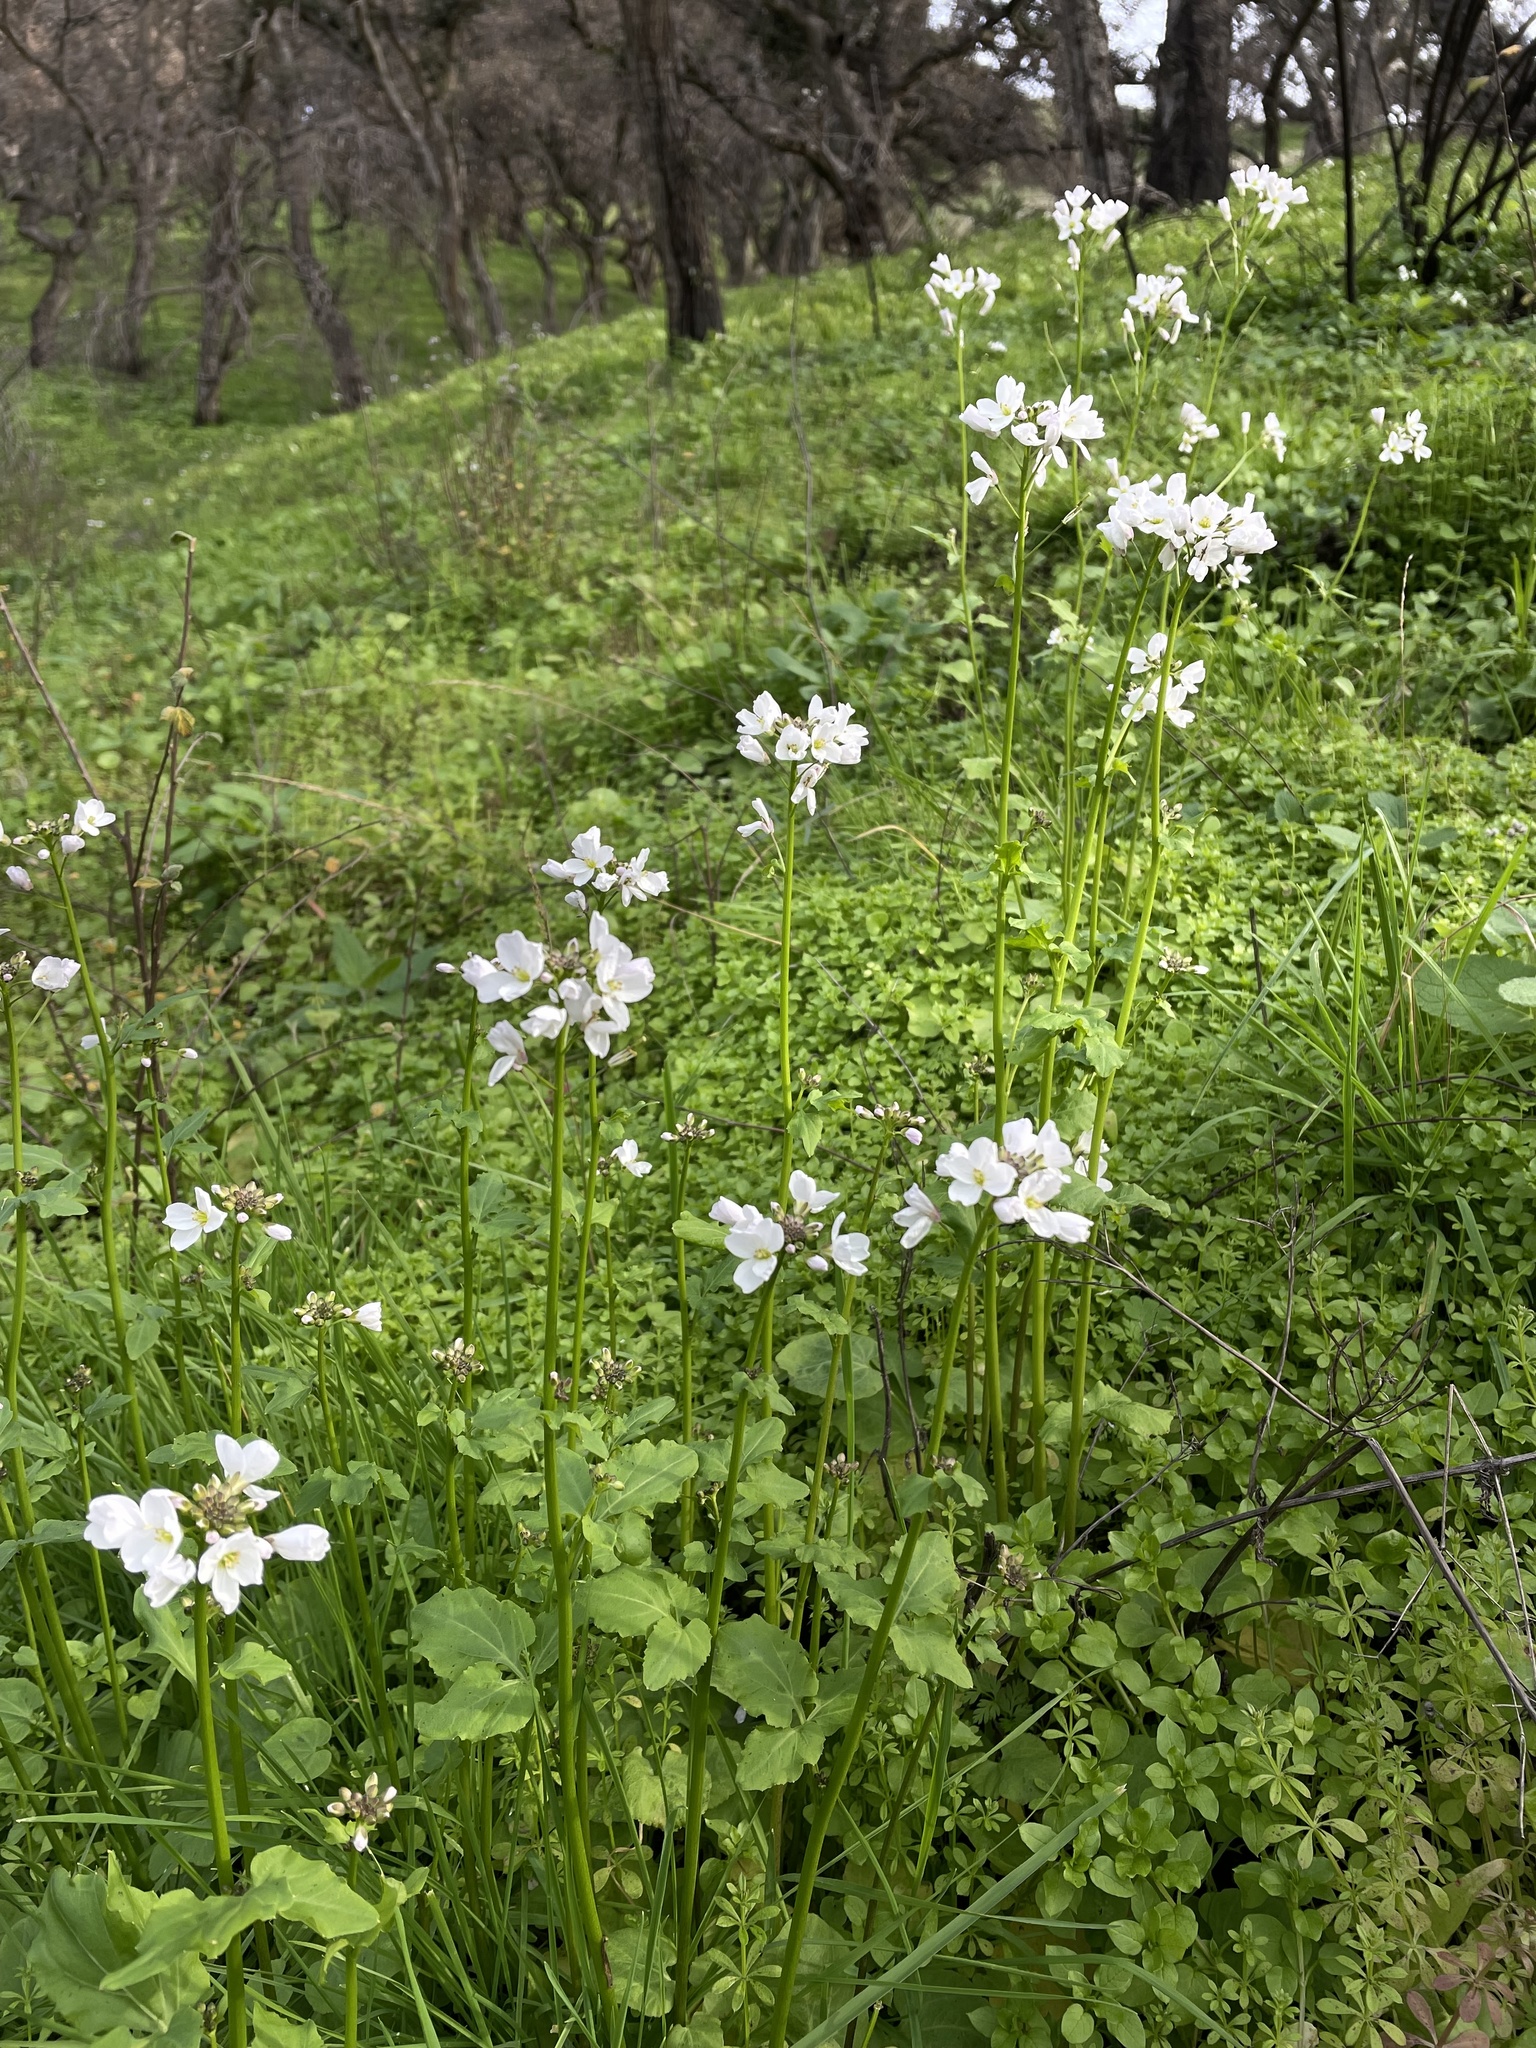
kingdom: Plantae
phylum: Tracheophyta
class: Magnoliopsida
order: Brassicales
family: Brassicaceae
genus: Cardamine
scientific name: Cardamine californica
